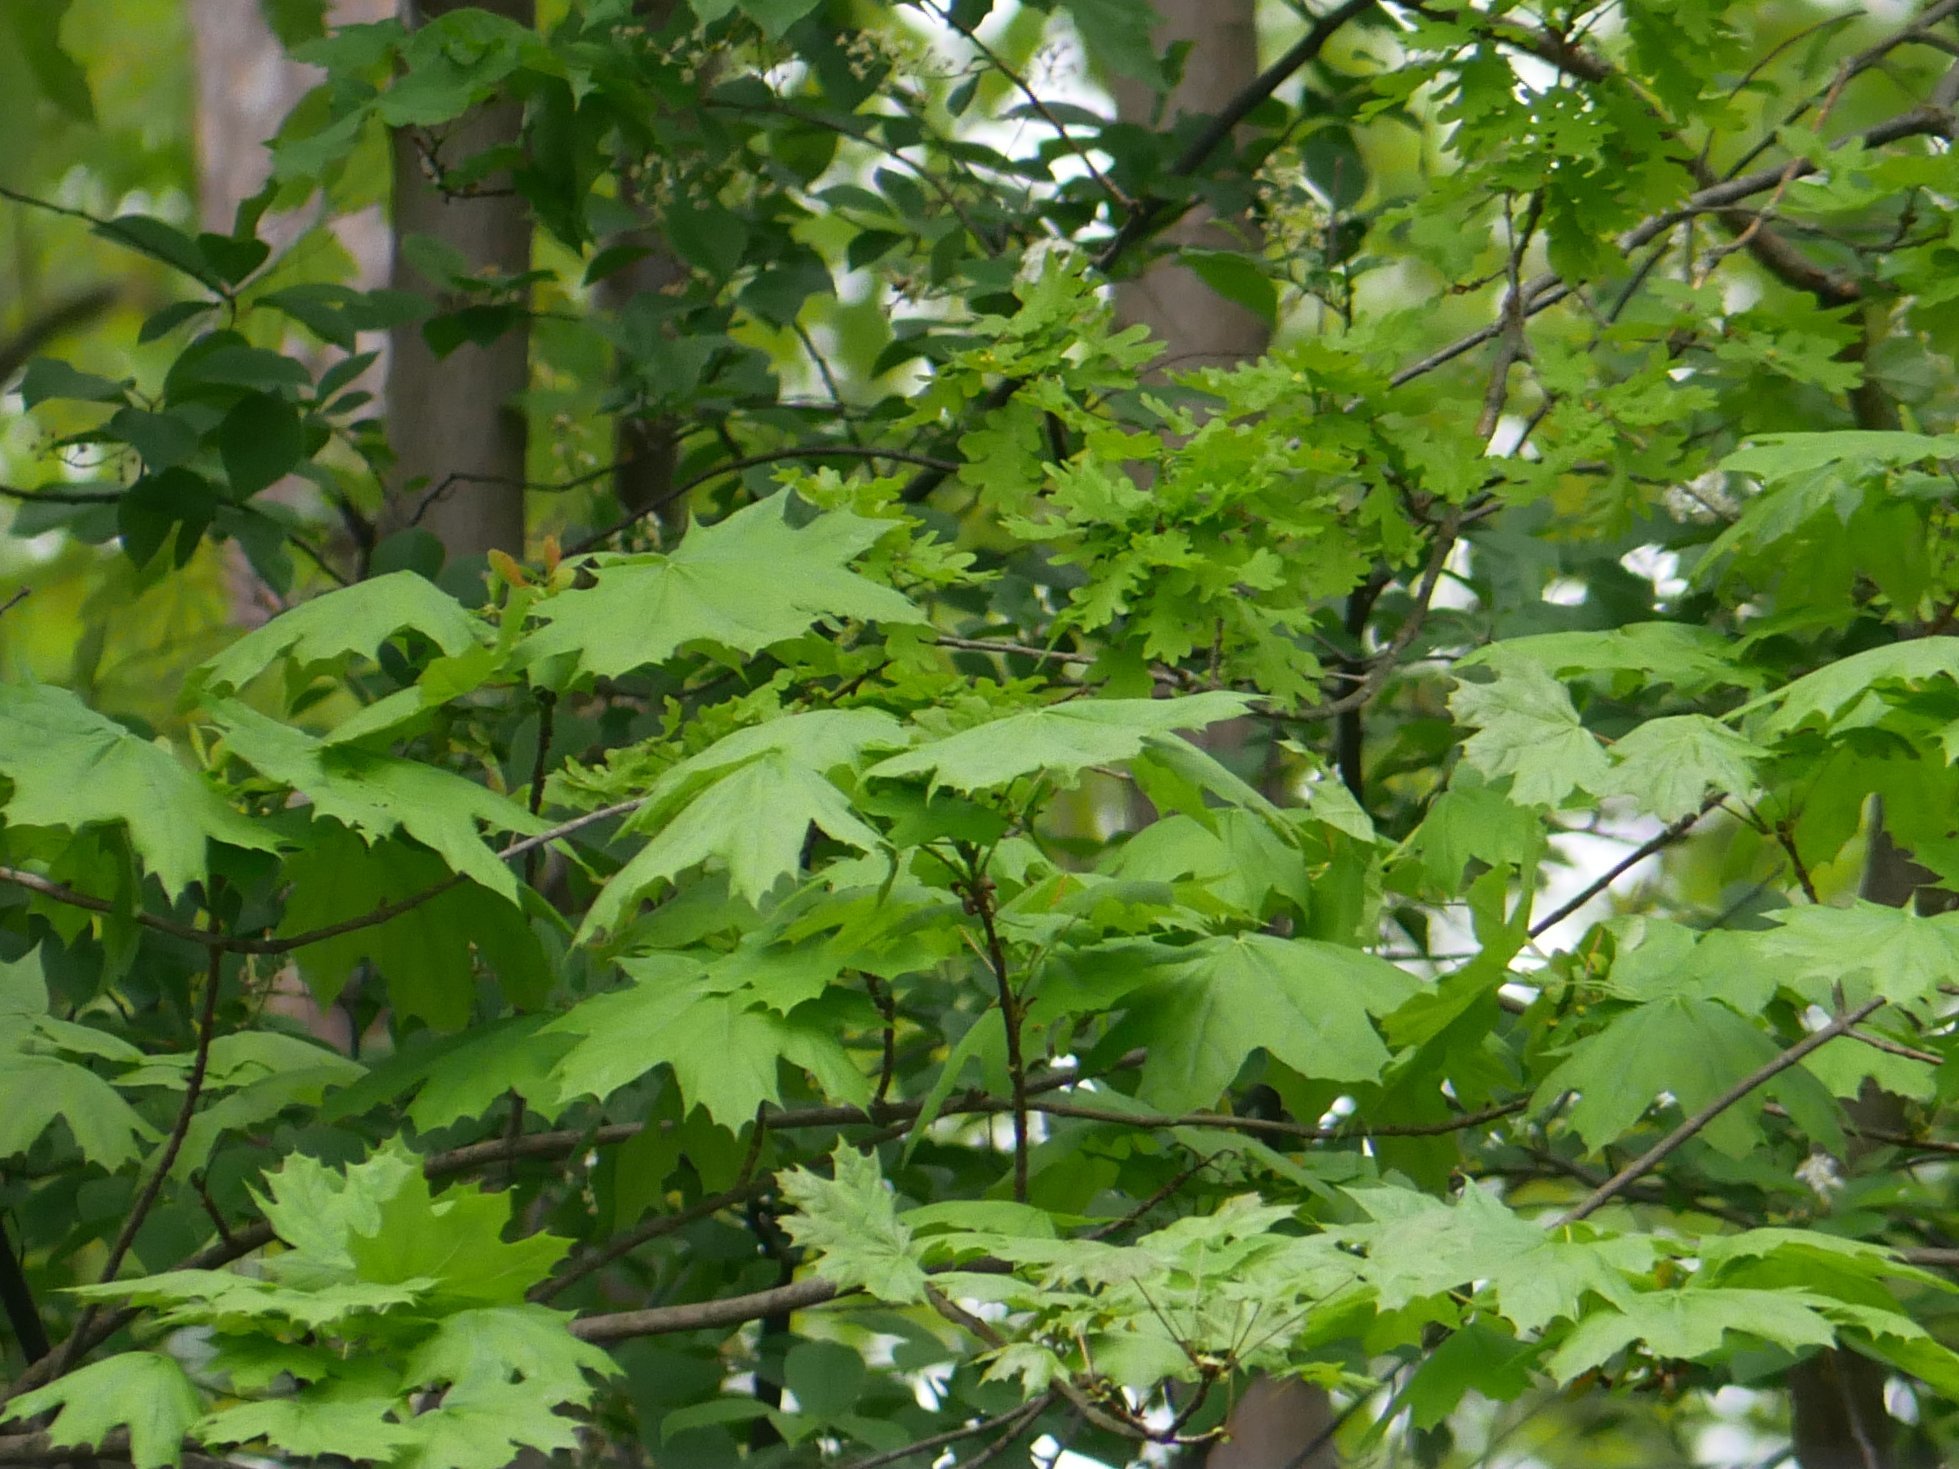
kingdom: Plantae
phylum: Tracheophyta
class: Magnoliopsida
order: Sapindales
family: Sapindaceae
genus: Acer
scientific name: Acer platanoides
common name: Norway maple
